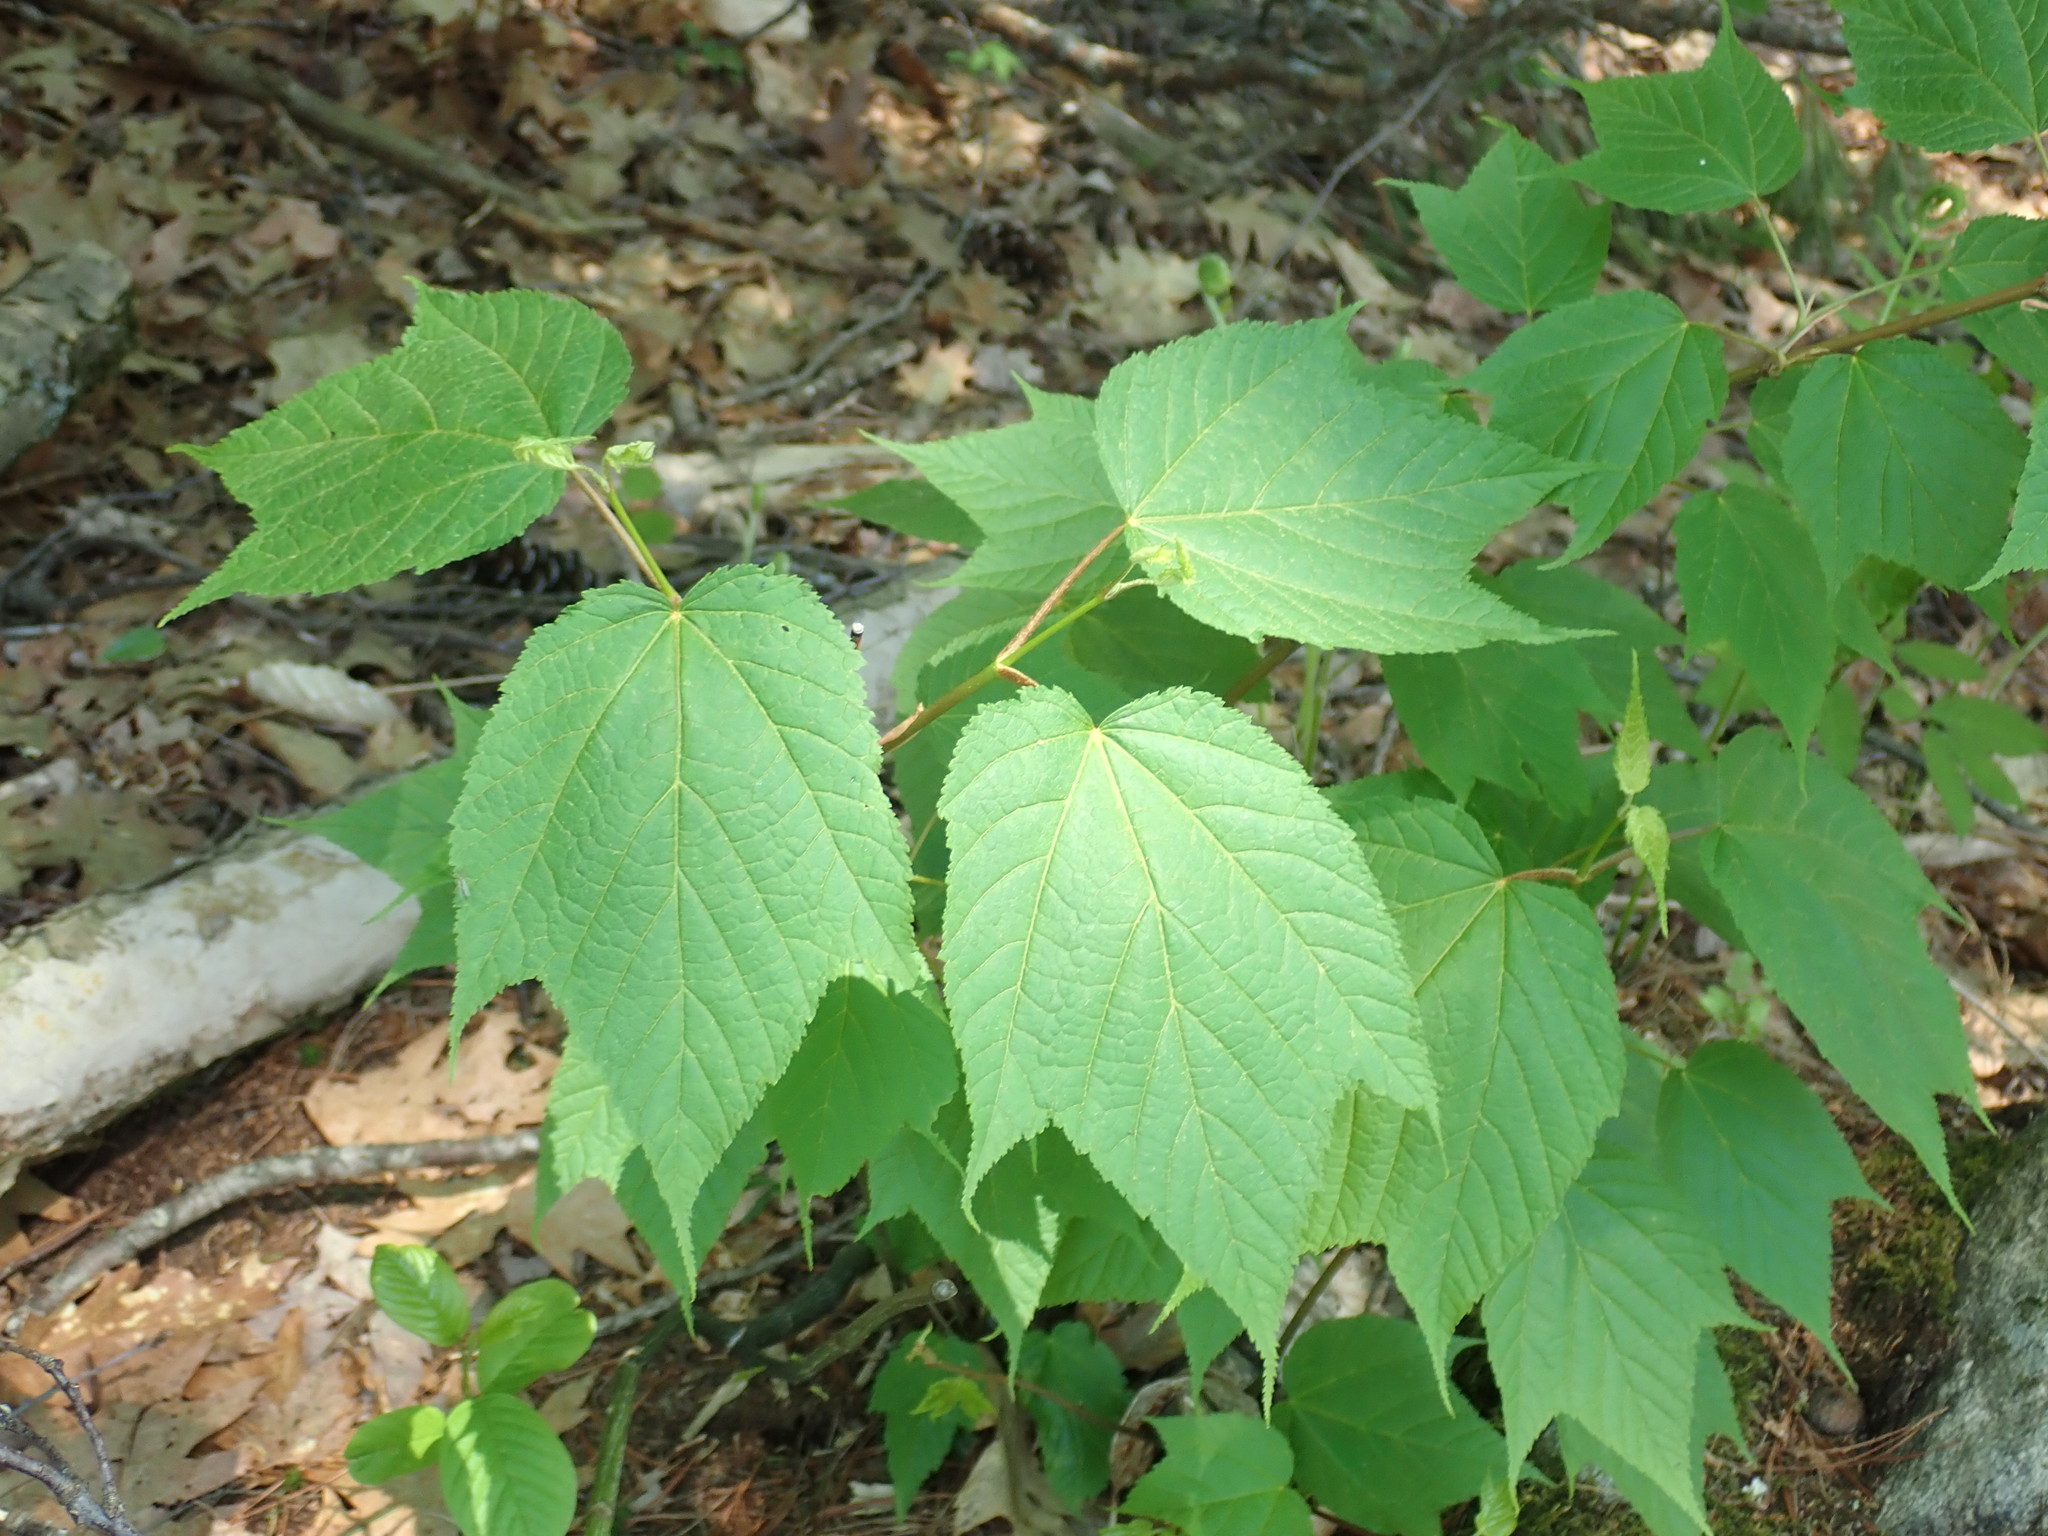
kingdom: Plantae
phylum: Tracheophyta
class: Magnoliopsida
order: Sapindales
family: Sapindaceae
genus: Acer
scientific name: Acer pensylvanicum
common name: Moosewood
